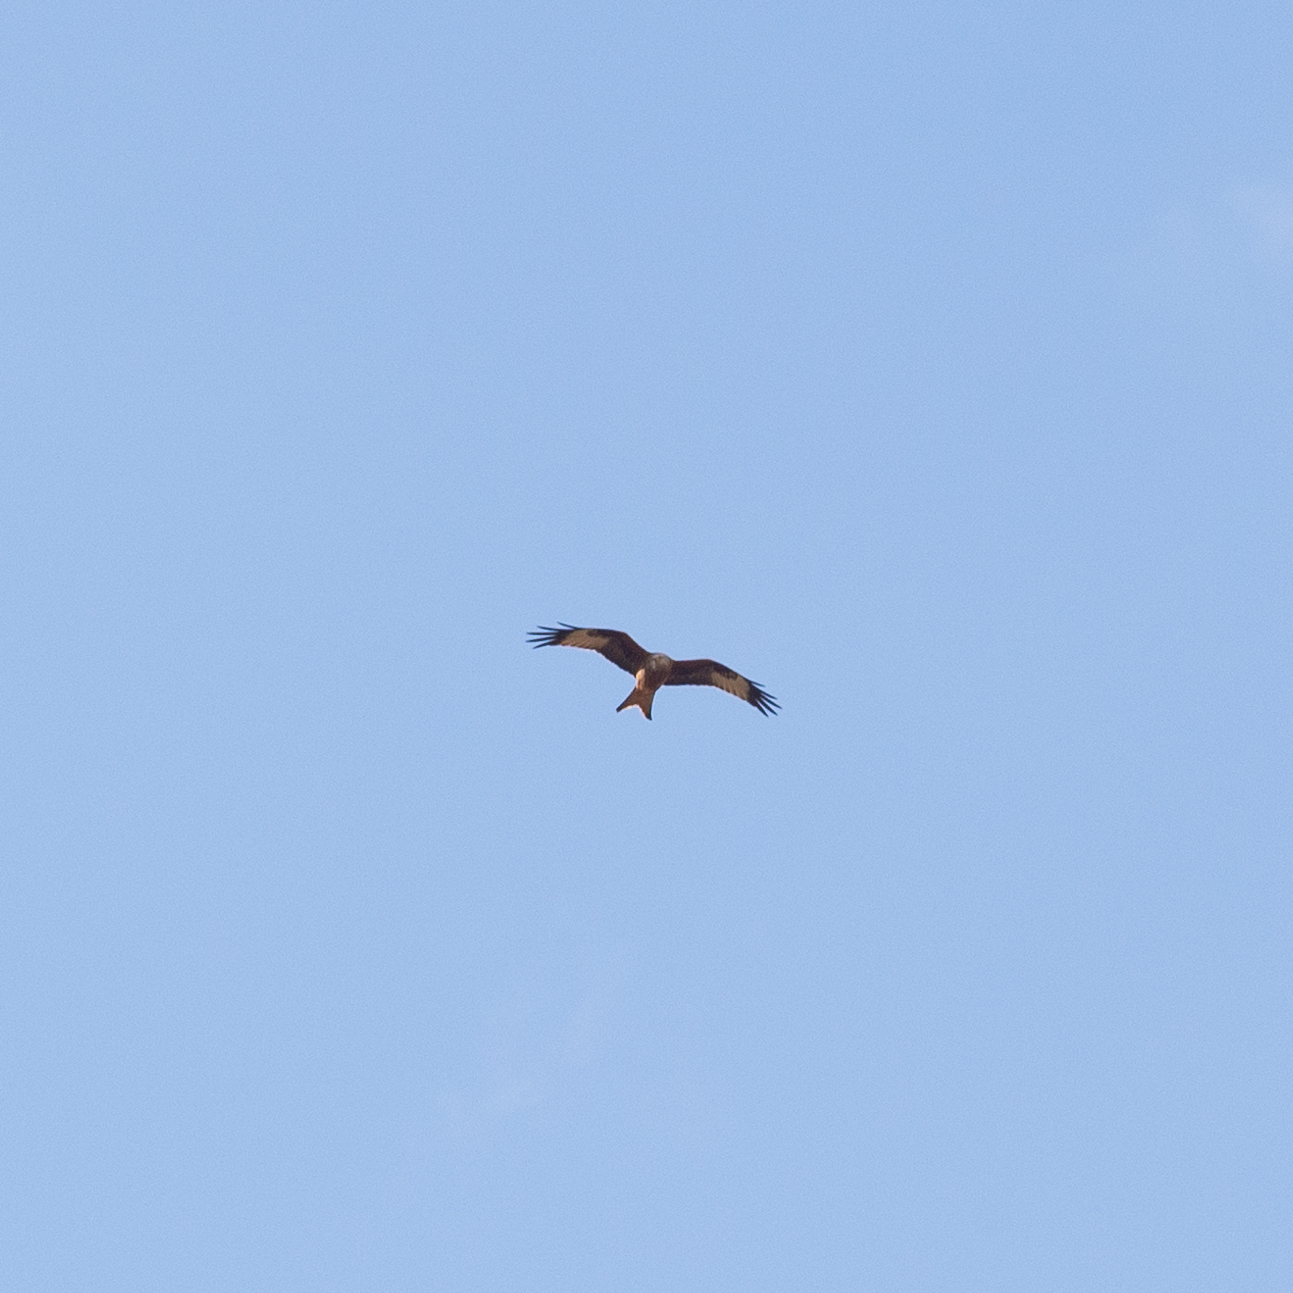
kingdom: Animalia
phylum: Chordata
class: Aves
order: Accipitriformes
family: Accipitridae
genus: Milvus
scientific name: Milvus milvus
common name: Red kite
